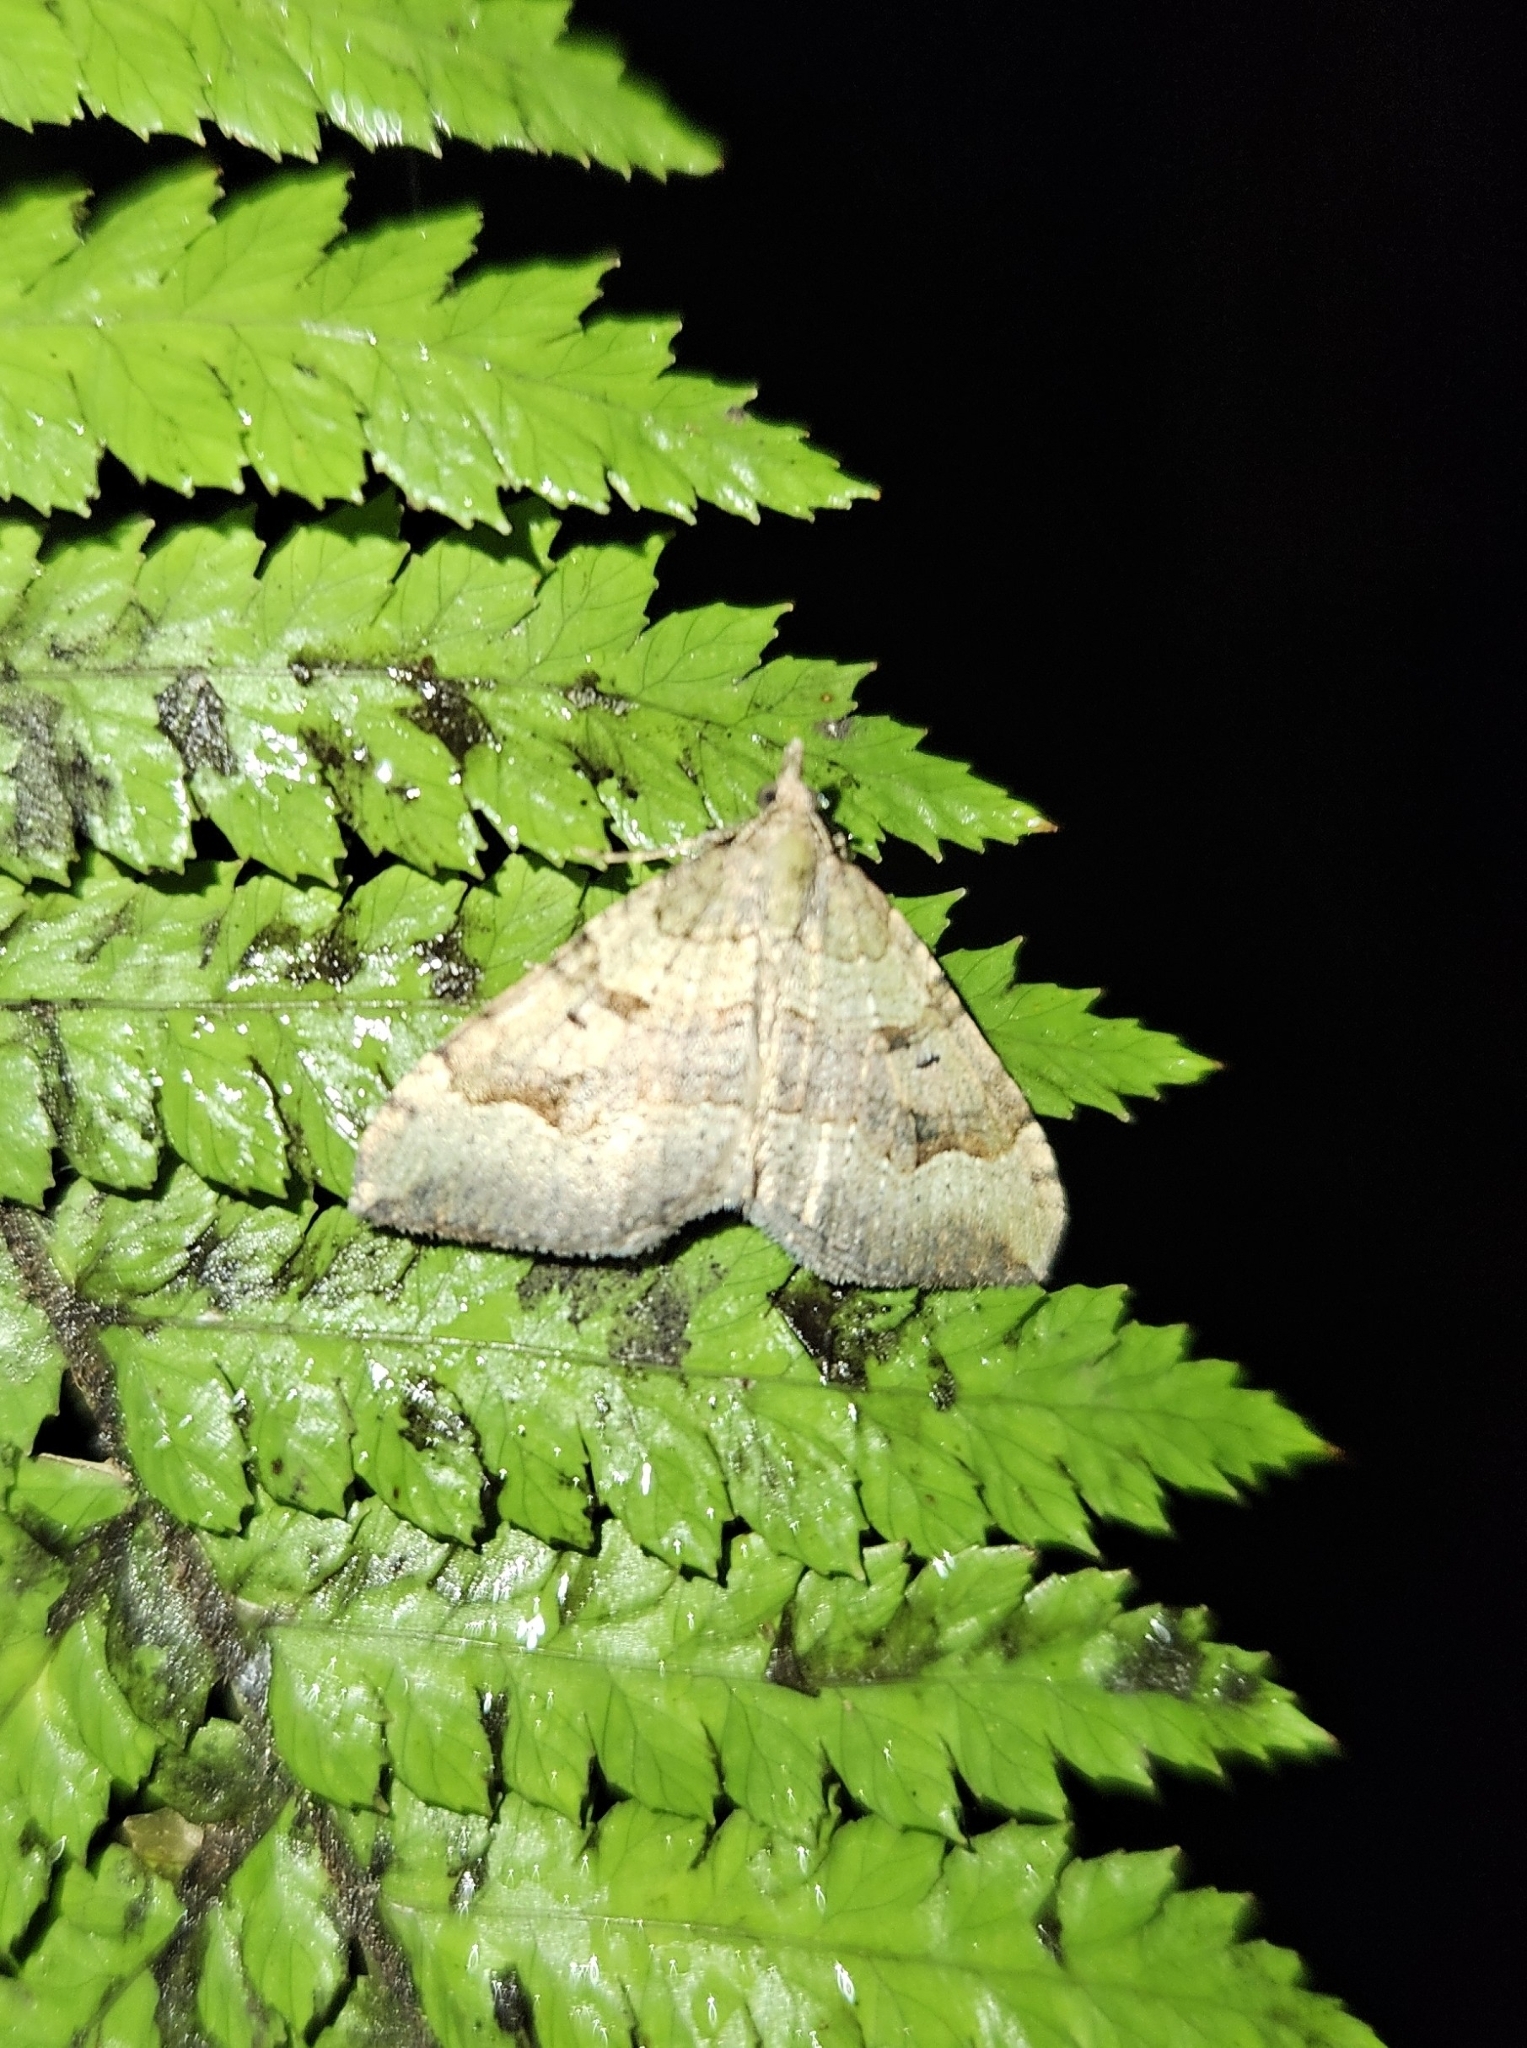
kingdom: Animalia
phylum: Arthropoda
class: Insecta
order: Lepidoptera
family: Geometridae
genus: Epyaxa
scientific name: Epyaxa rosearia
